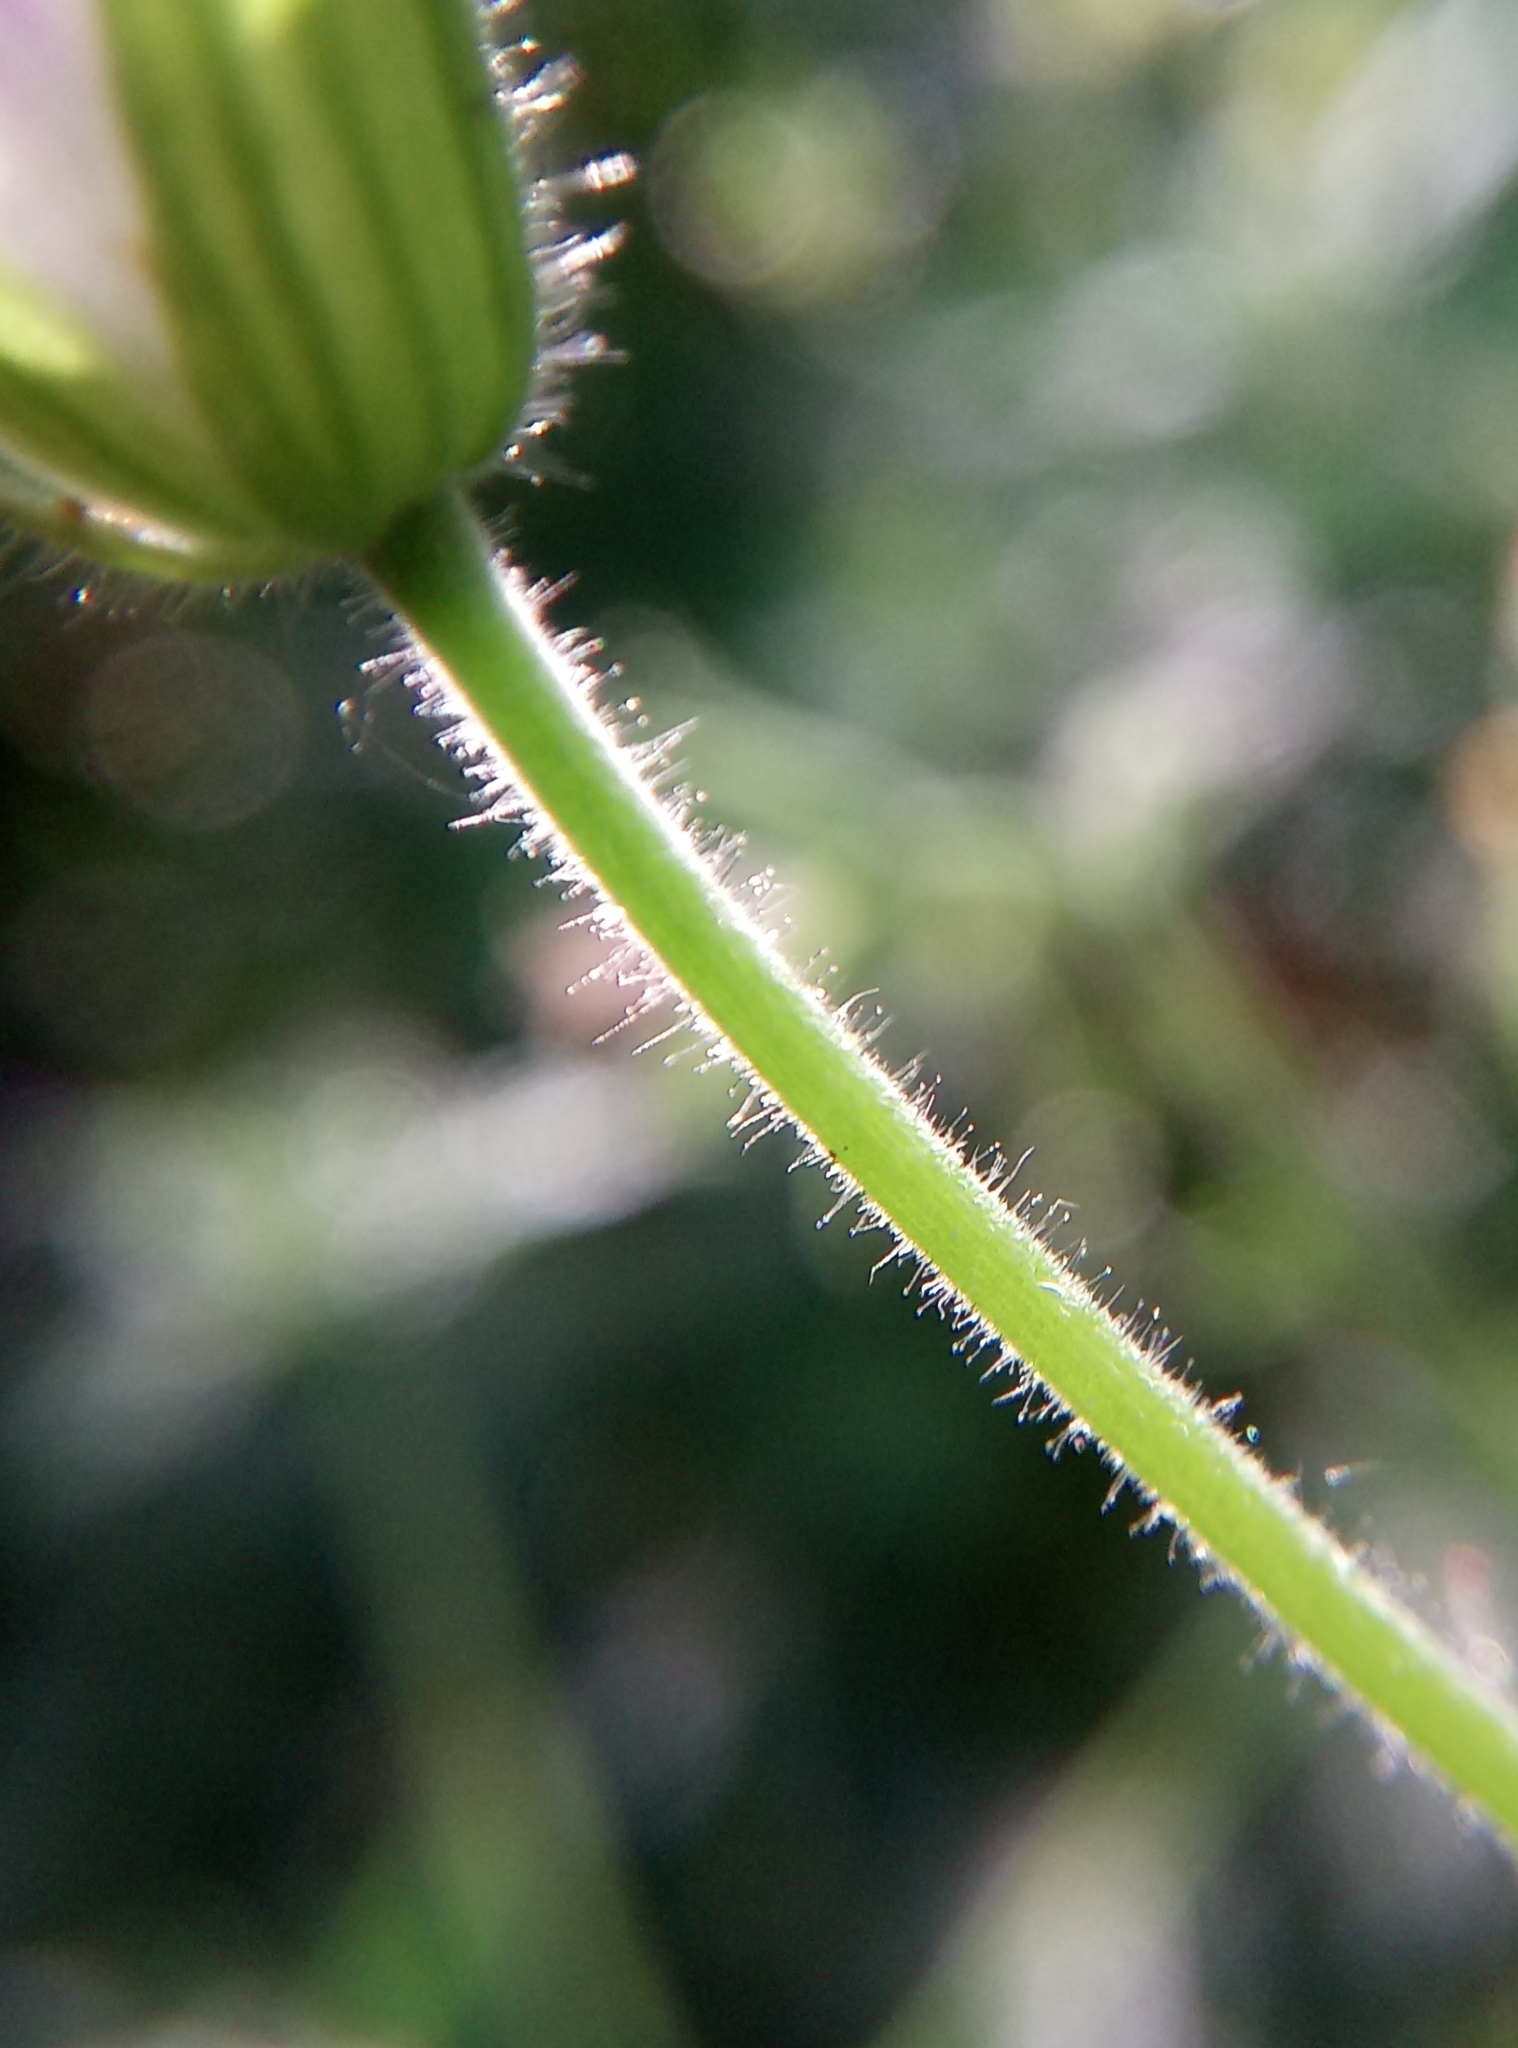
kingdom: Plantae
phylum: Tracheophyta
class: Magnoliopsida
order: Geraniales
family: Geraniaceae
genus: Geranium
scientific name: Geranium oxonianum
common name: Druce's crane's-bill
